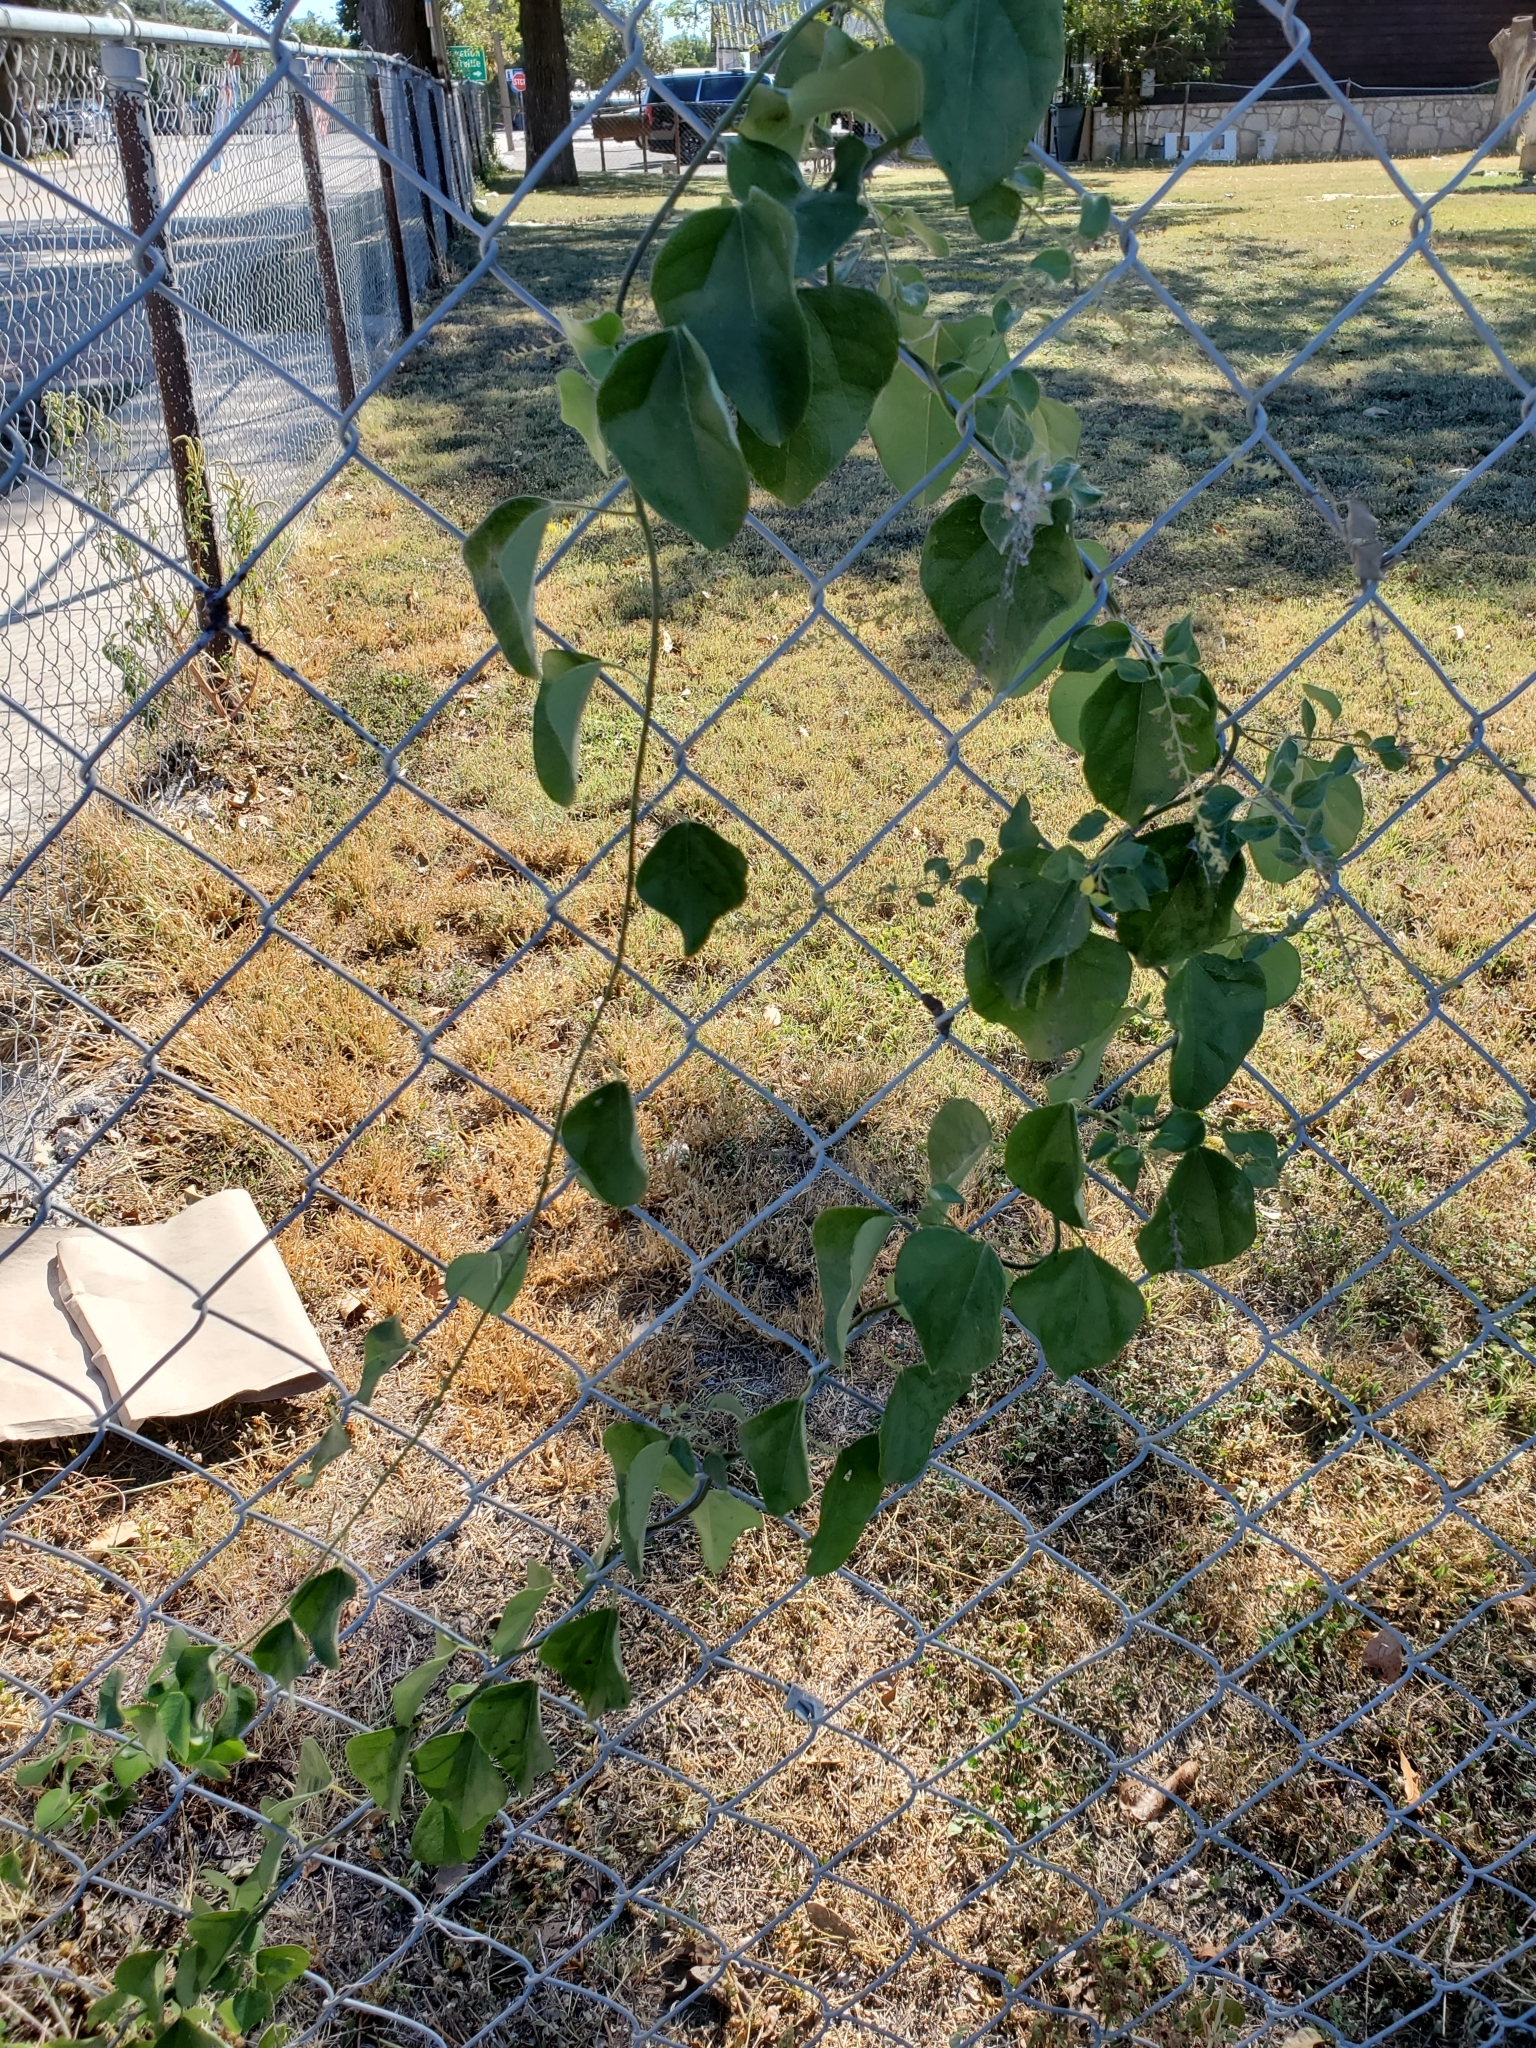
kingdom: Plantae
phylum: Tracheophyta
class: Magnoliopsida
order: Ranunculales
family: Menispermaceae
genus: Cocculus
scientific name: Cocculus carolinus
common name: Carolina moonseed
